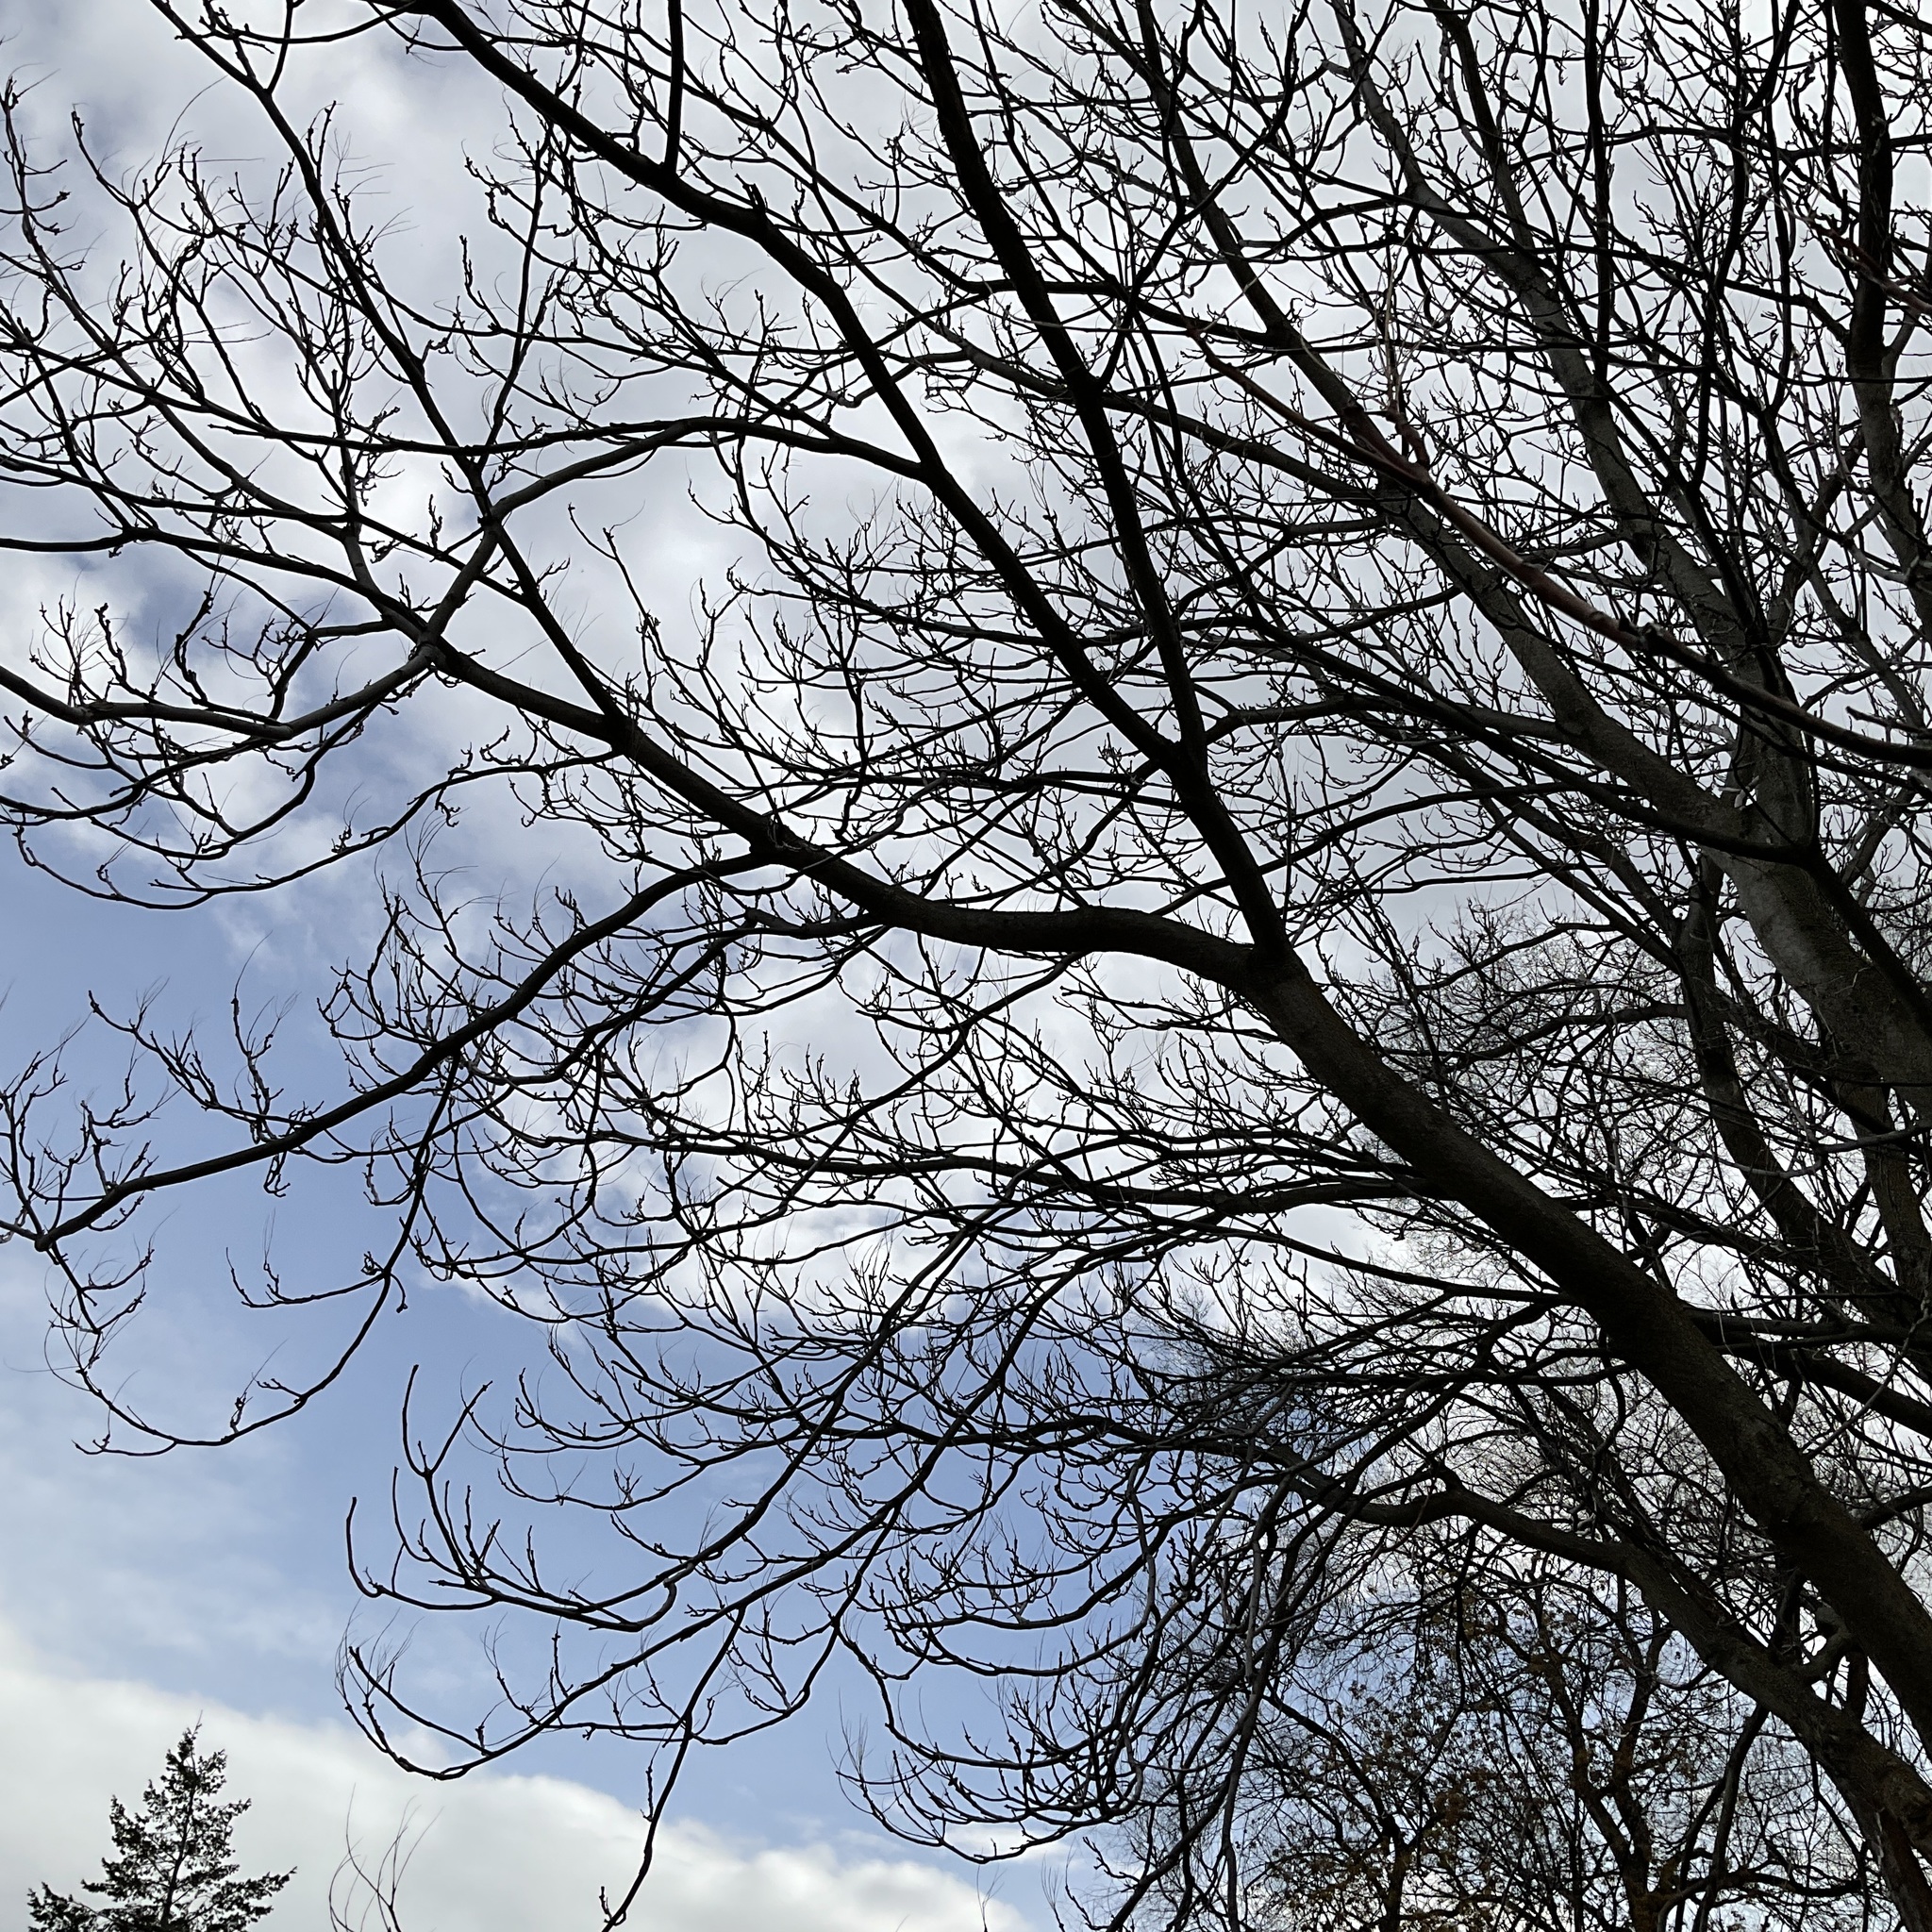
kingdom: Plantae
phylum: Tracheophyta
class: Magnoliopsida
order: Sapindales
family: Simaroubaceae
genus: Ailanthus
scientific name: Ailanthus altissima
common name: Tree-of-heaven
